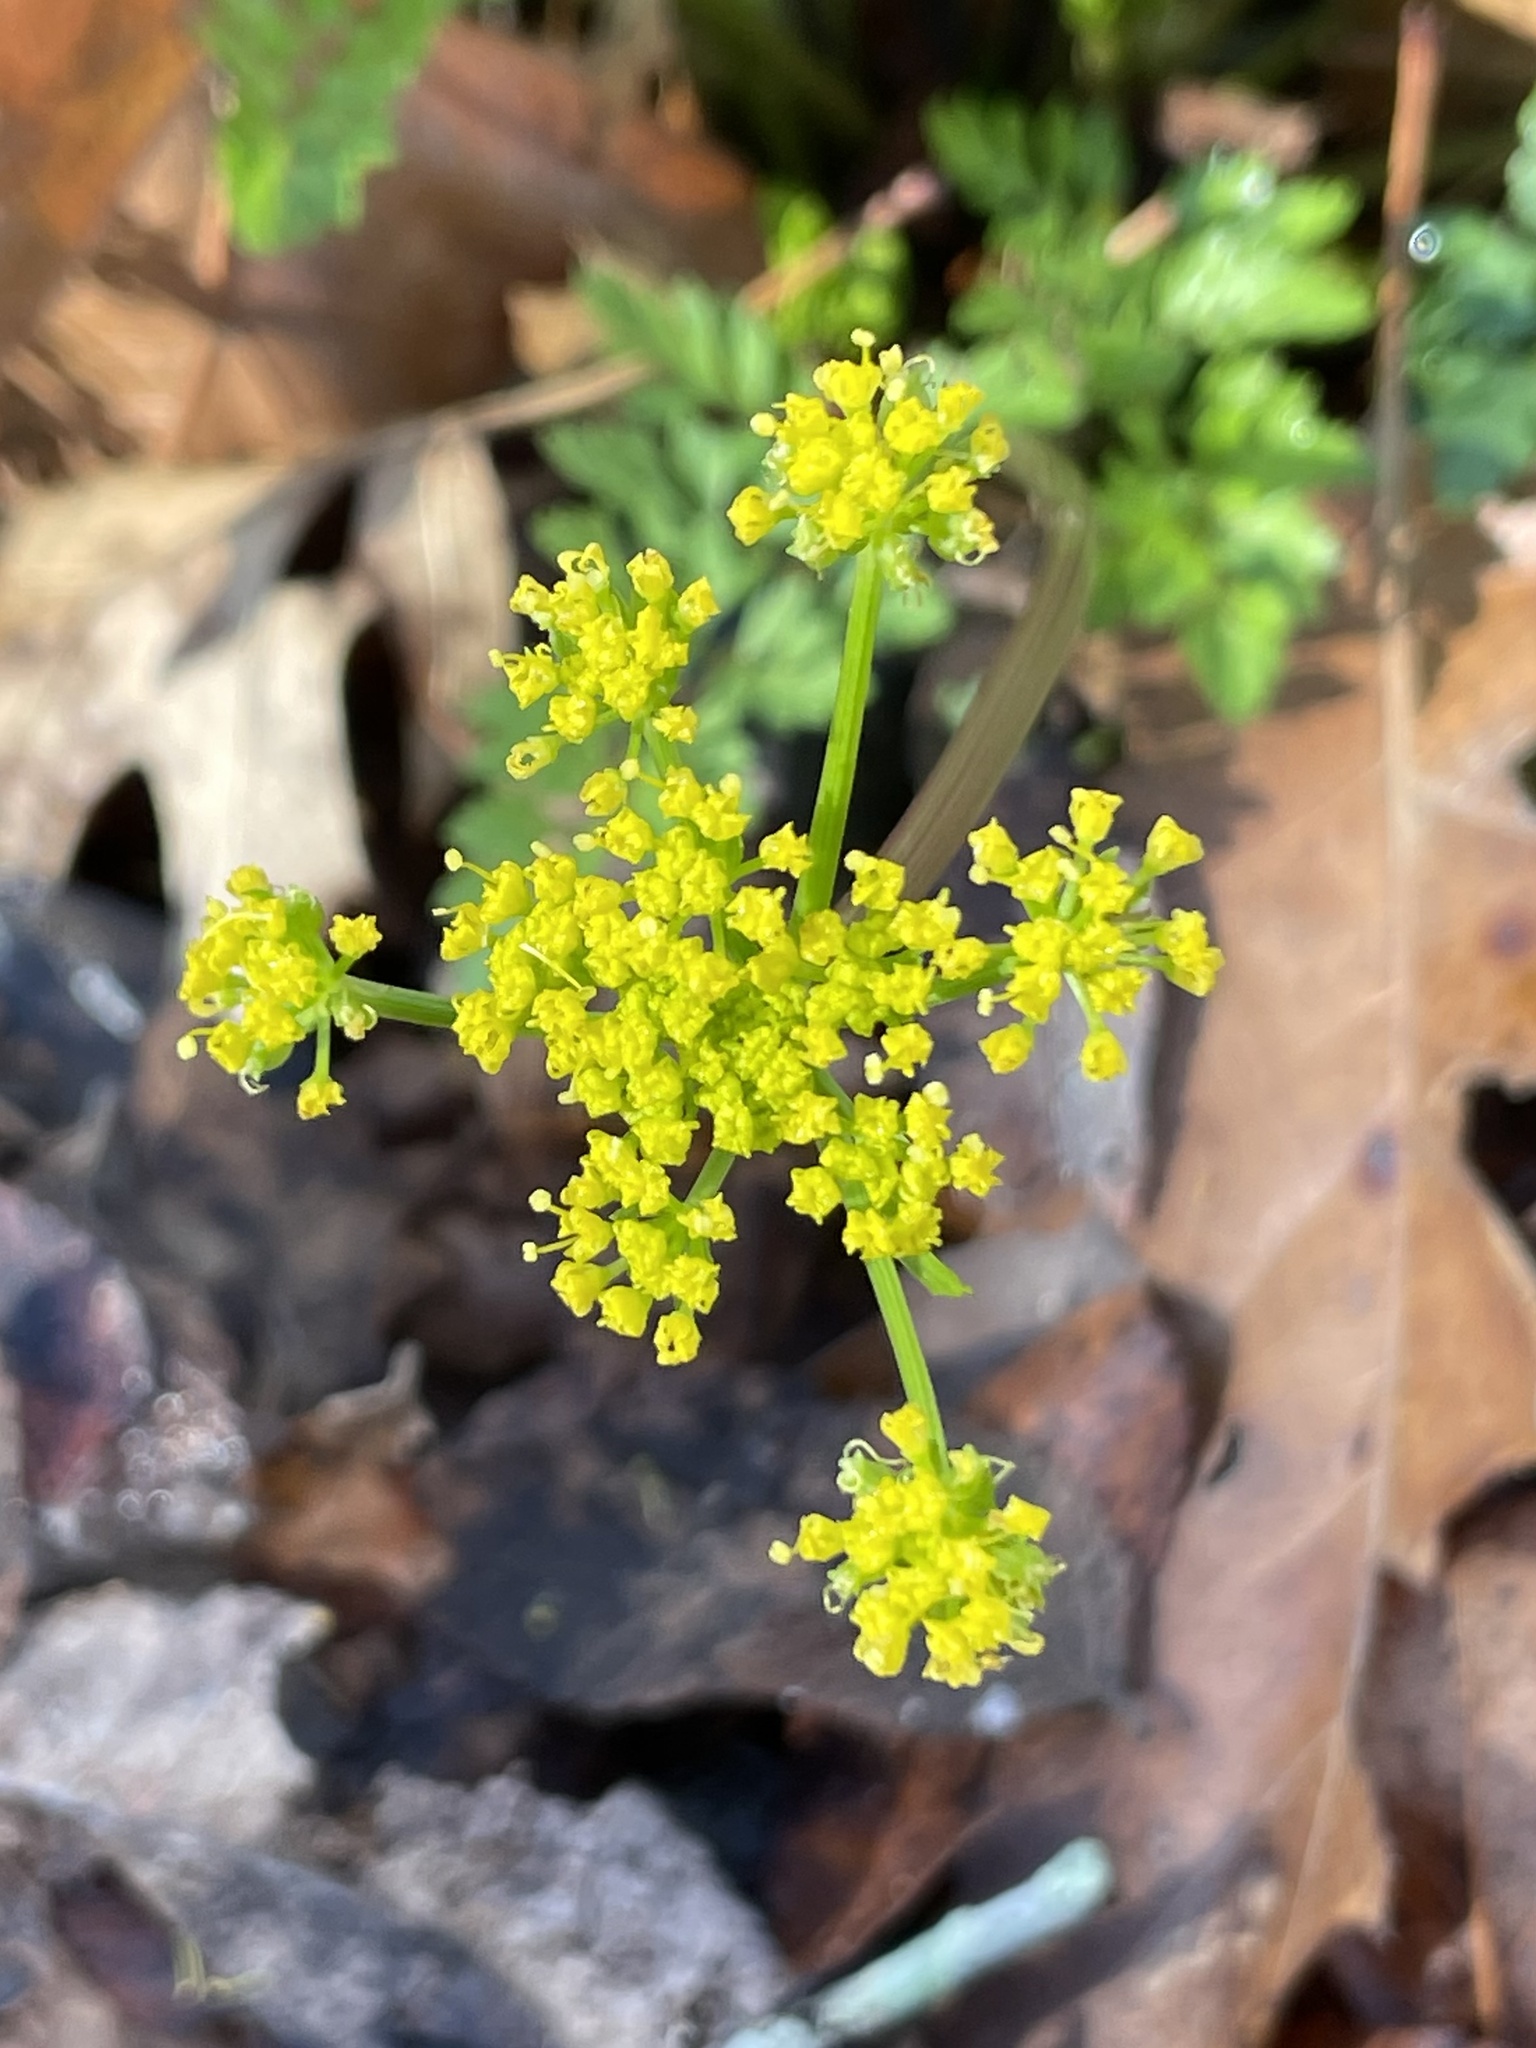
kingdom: Plantae
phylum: Tracheophyta
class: Magnoliopsida
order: Apiales
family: Apiaceae
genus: Tauschia
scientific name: Tauschia texana
